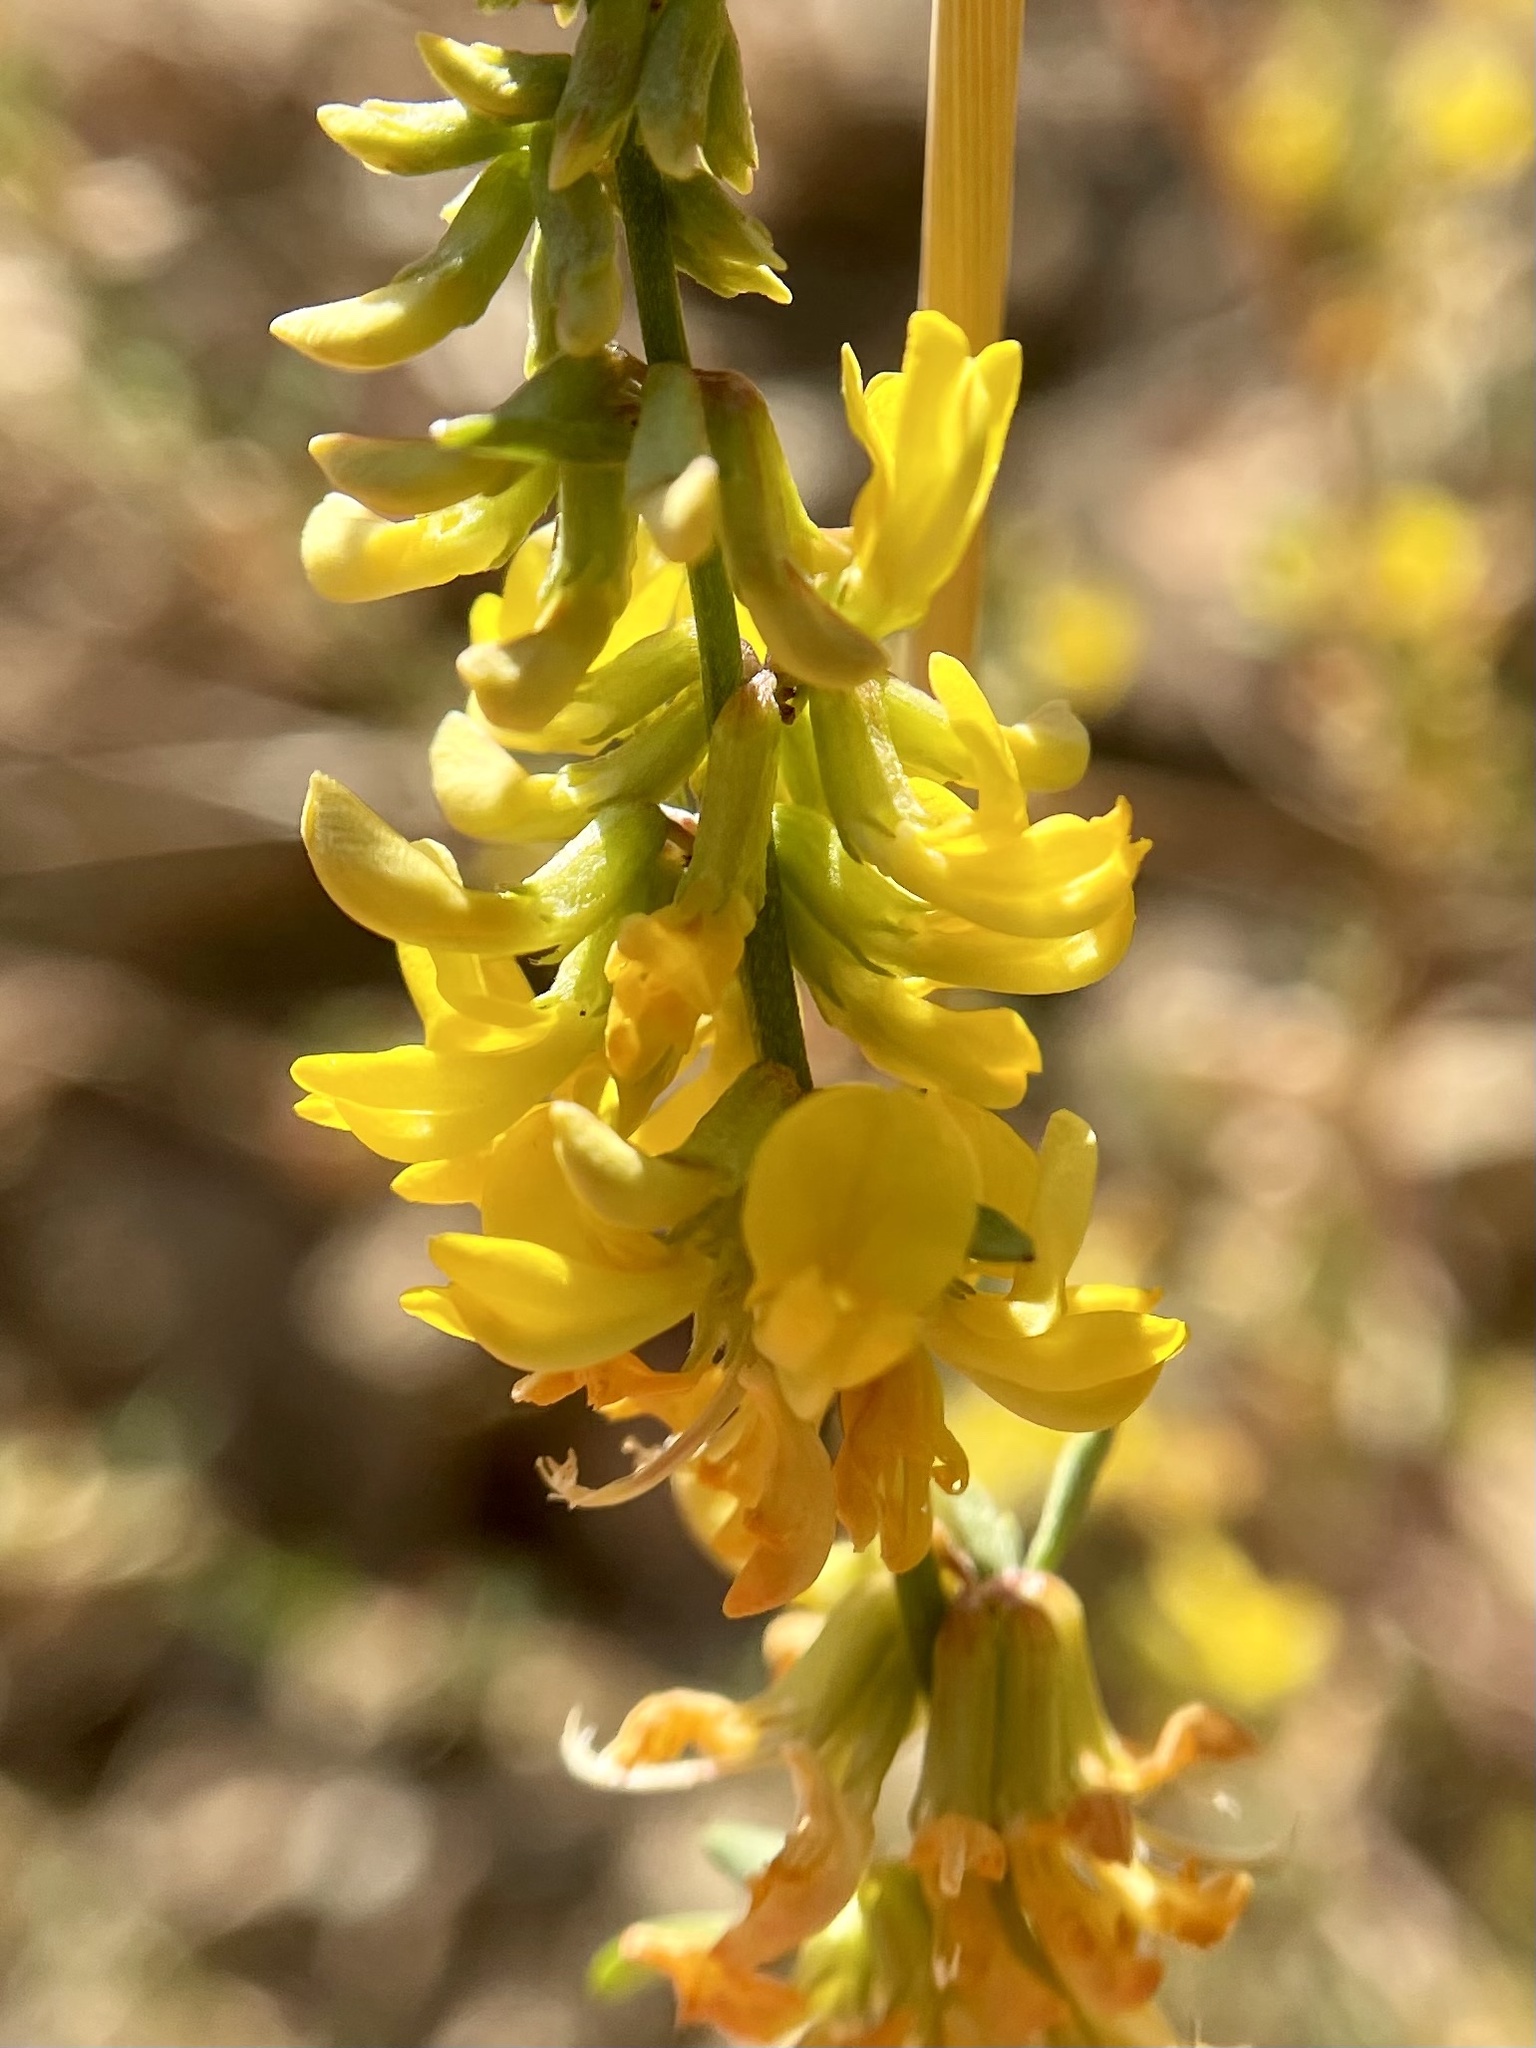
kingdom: Plantae
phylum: Tracheophyta
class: Magnoliopsida
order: Fabales
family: Fabaceae
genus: Acmispon
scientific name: Acmispon glaber
